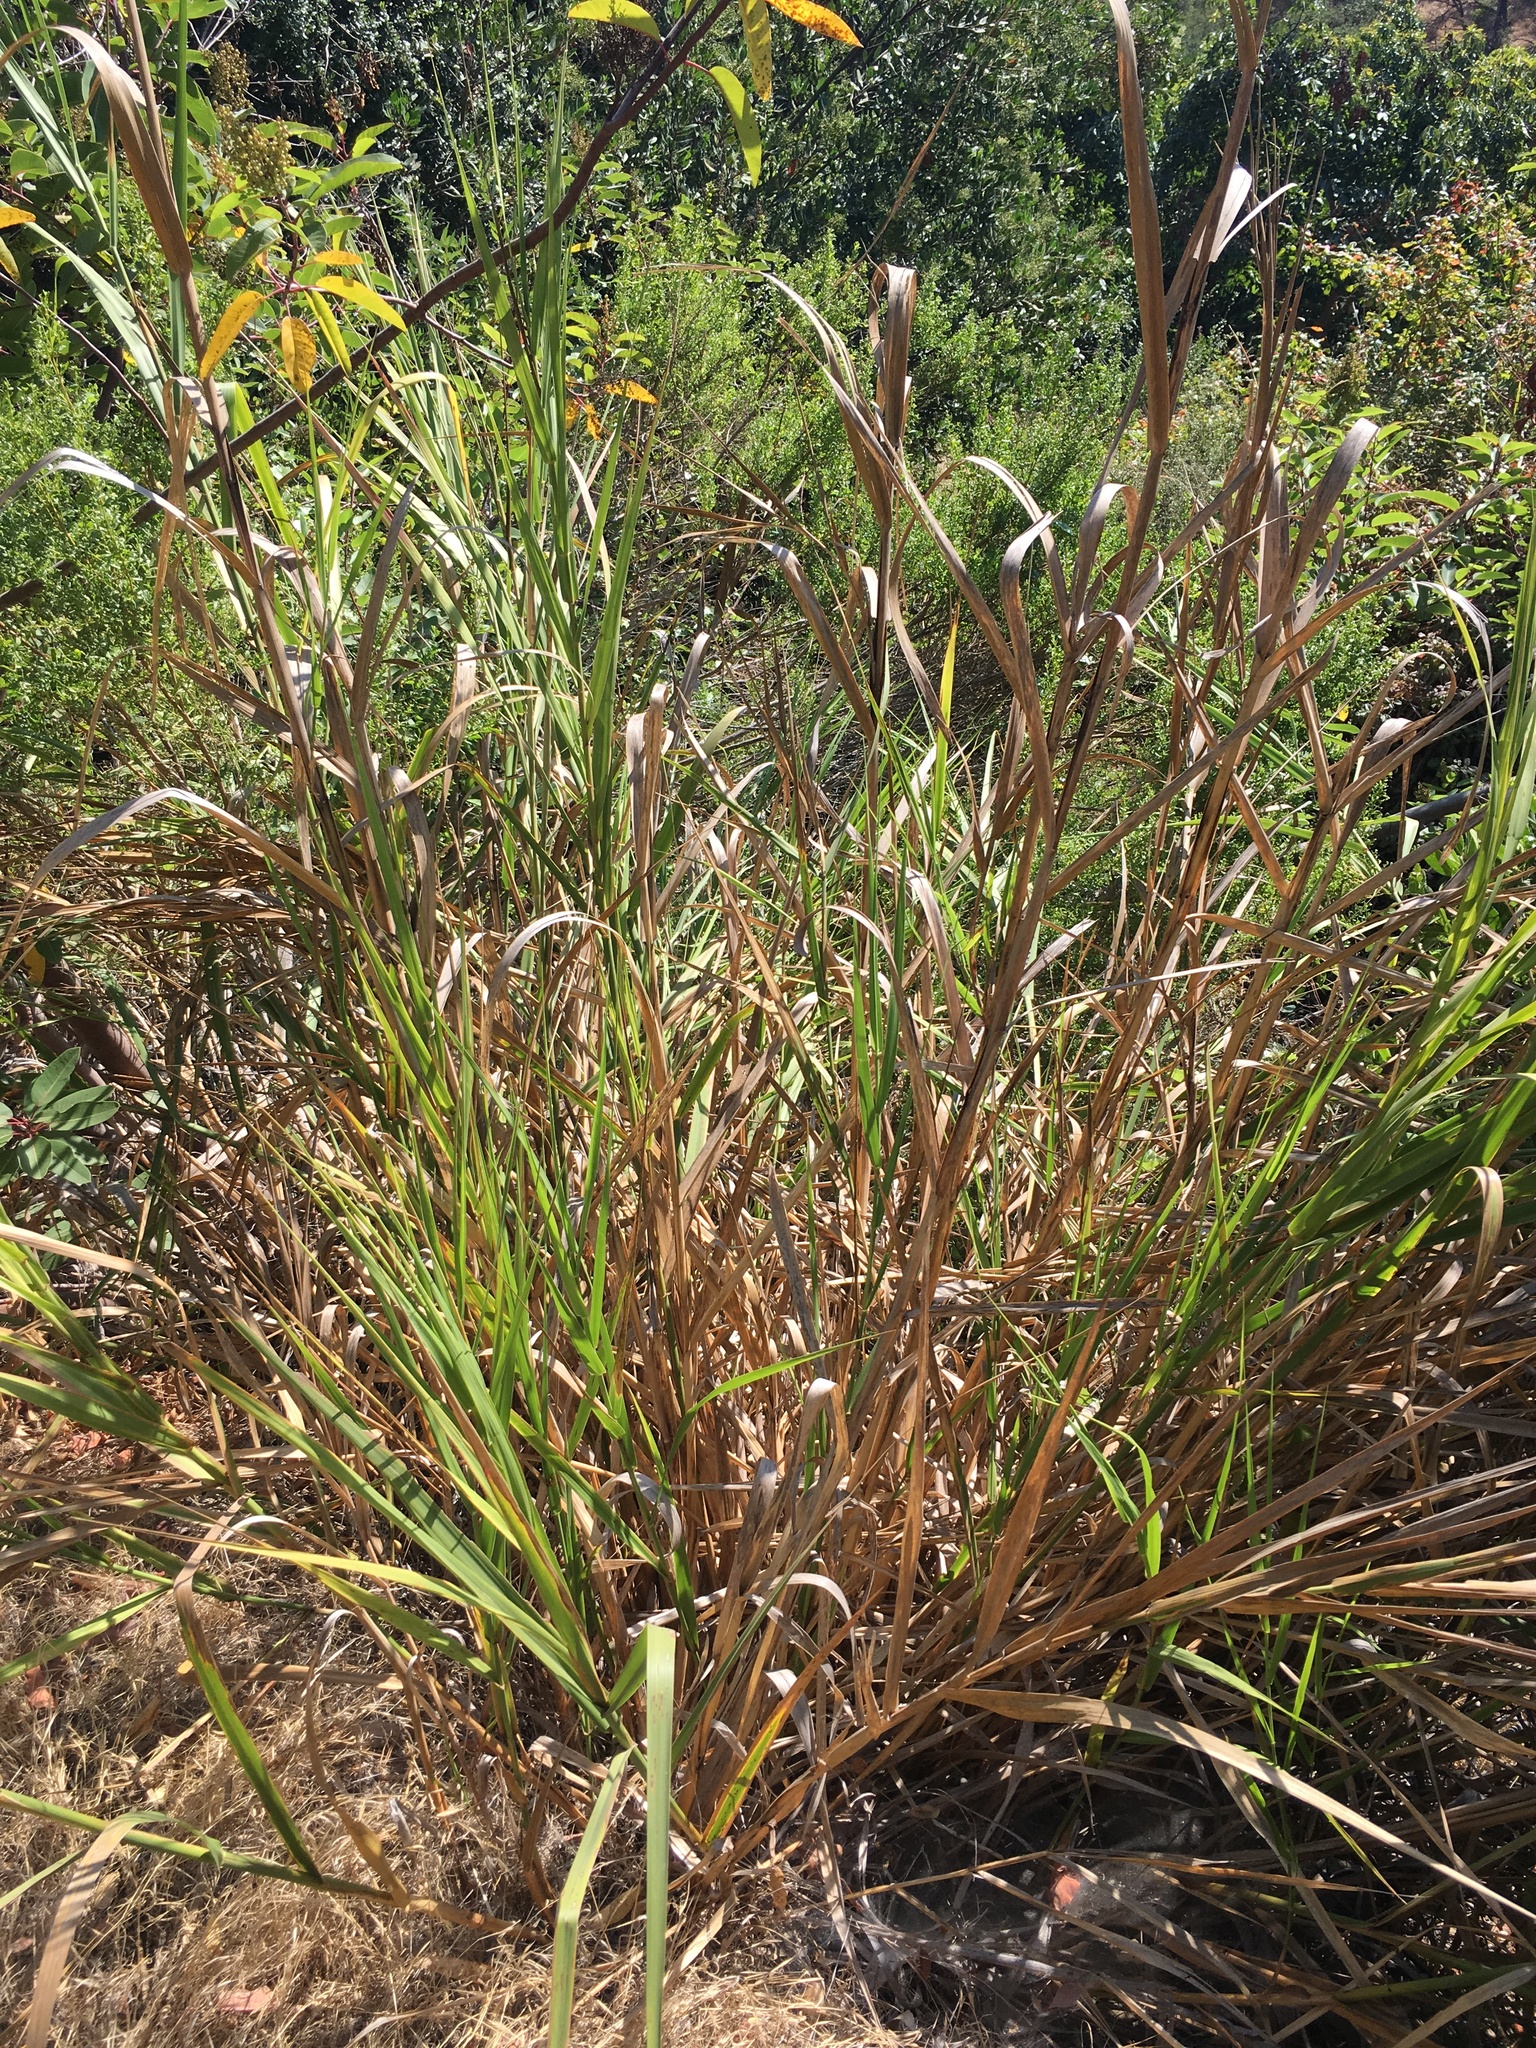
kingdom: Plantae
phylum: Tracheophyta
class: Liliopsida
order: Poales
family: Poaceae
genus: Leymus
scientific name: Leymus condensatus
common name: Giant wild rye
